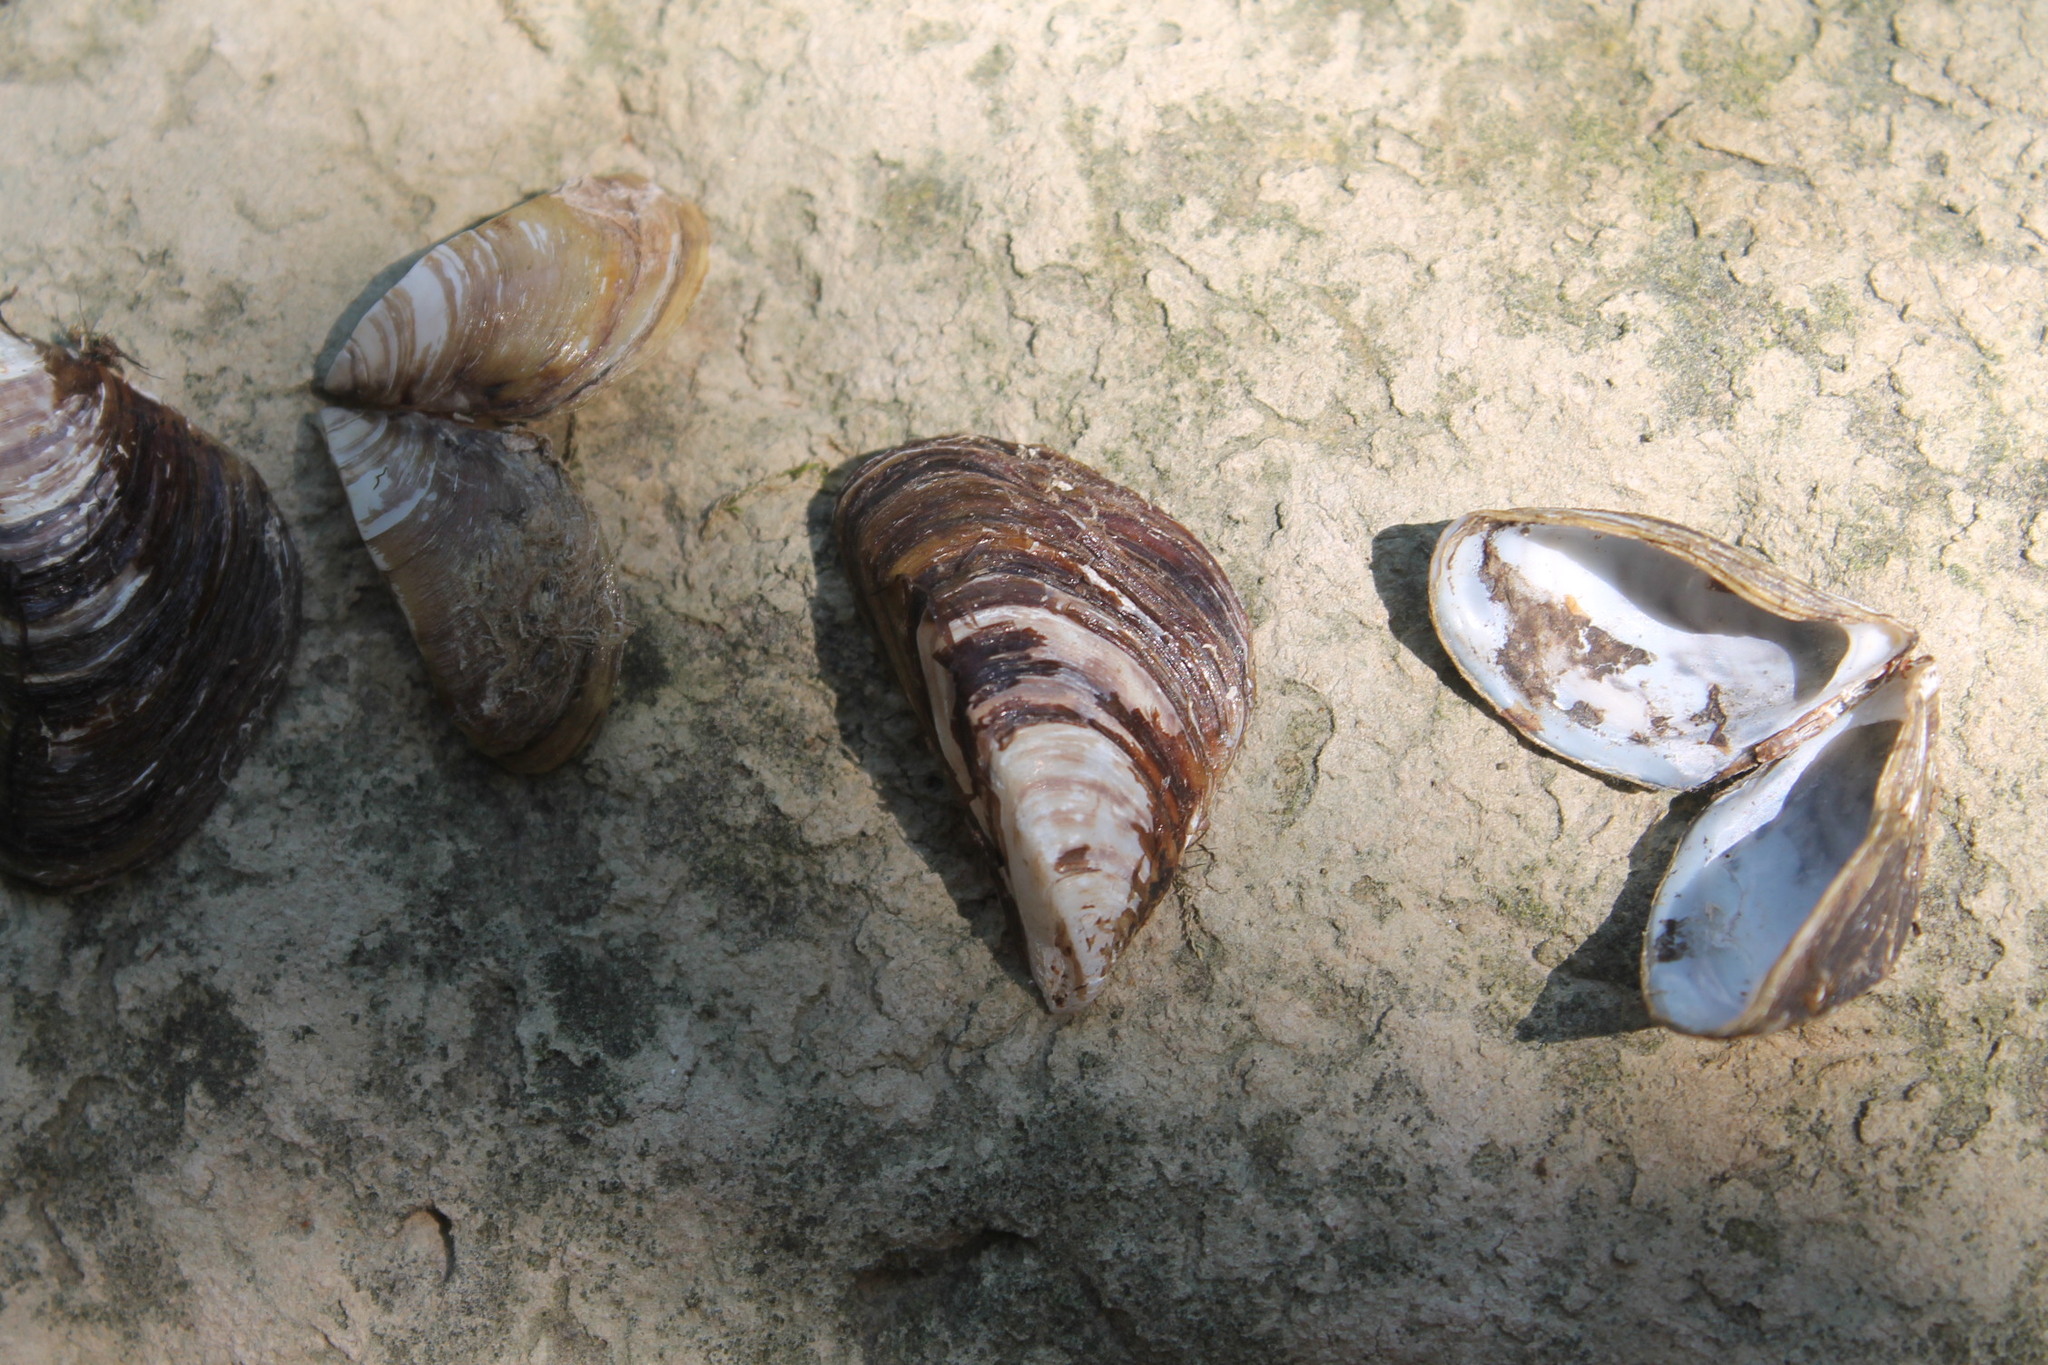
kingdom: Animalia
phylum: Mollusca
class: Bivalvia
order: Myida
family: Dreissenidae
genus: Dreissena
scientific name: Dreissena polymorpha
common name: Zebra mussel
